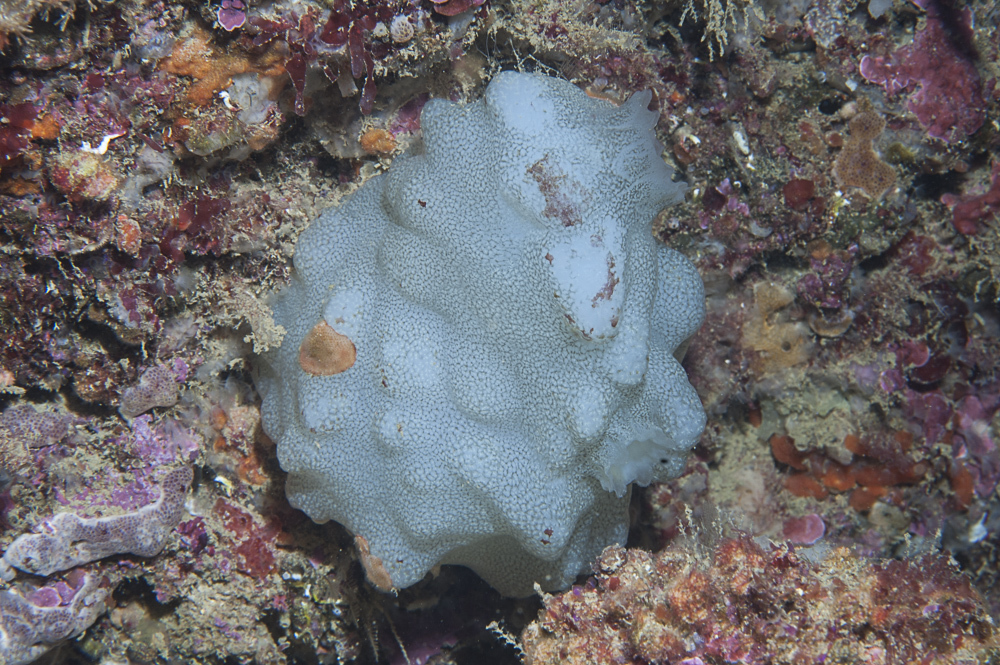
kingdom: Animalia
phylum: Chordata
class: Ascidiacea
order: Phlebobranchia
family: Ascidiidae
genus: Phallusia
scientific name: Phallusia mammillata
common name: Neptune's heart sea squirt
